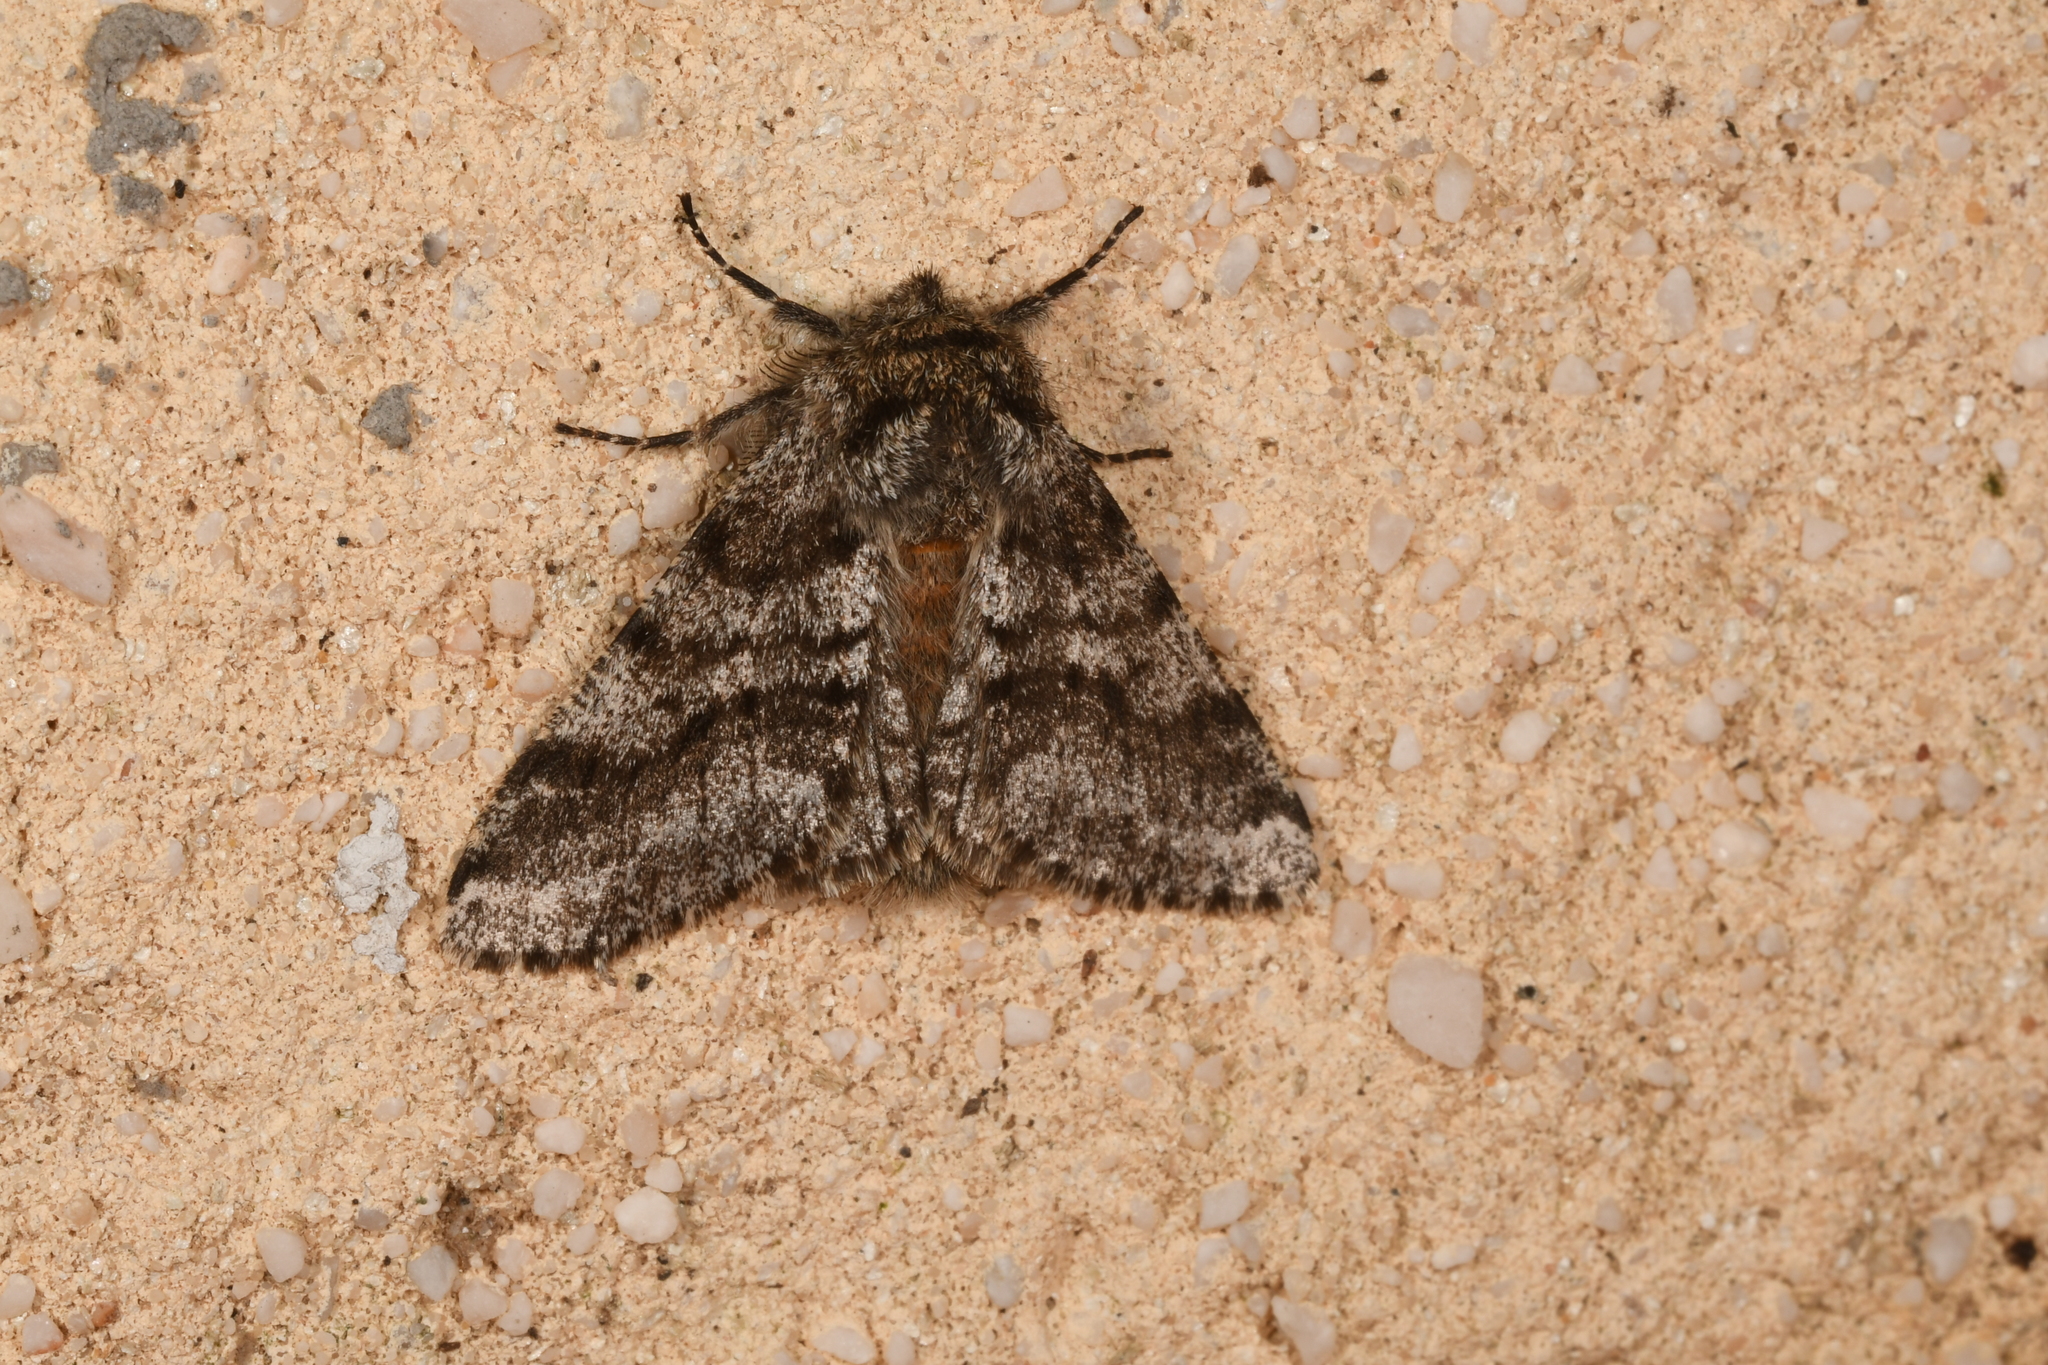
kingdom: Animalia
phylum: Arthropoda
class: Insecta
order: Lepidoptera
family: Geometridae
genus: Lycia
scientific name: Lycia hirtaria
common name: Brindled beauty
